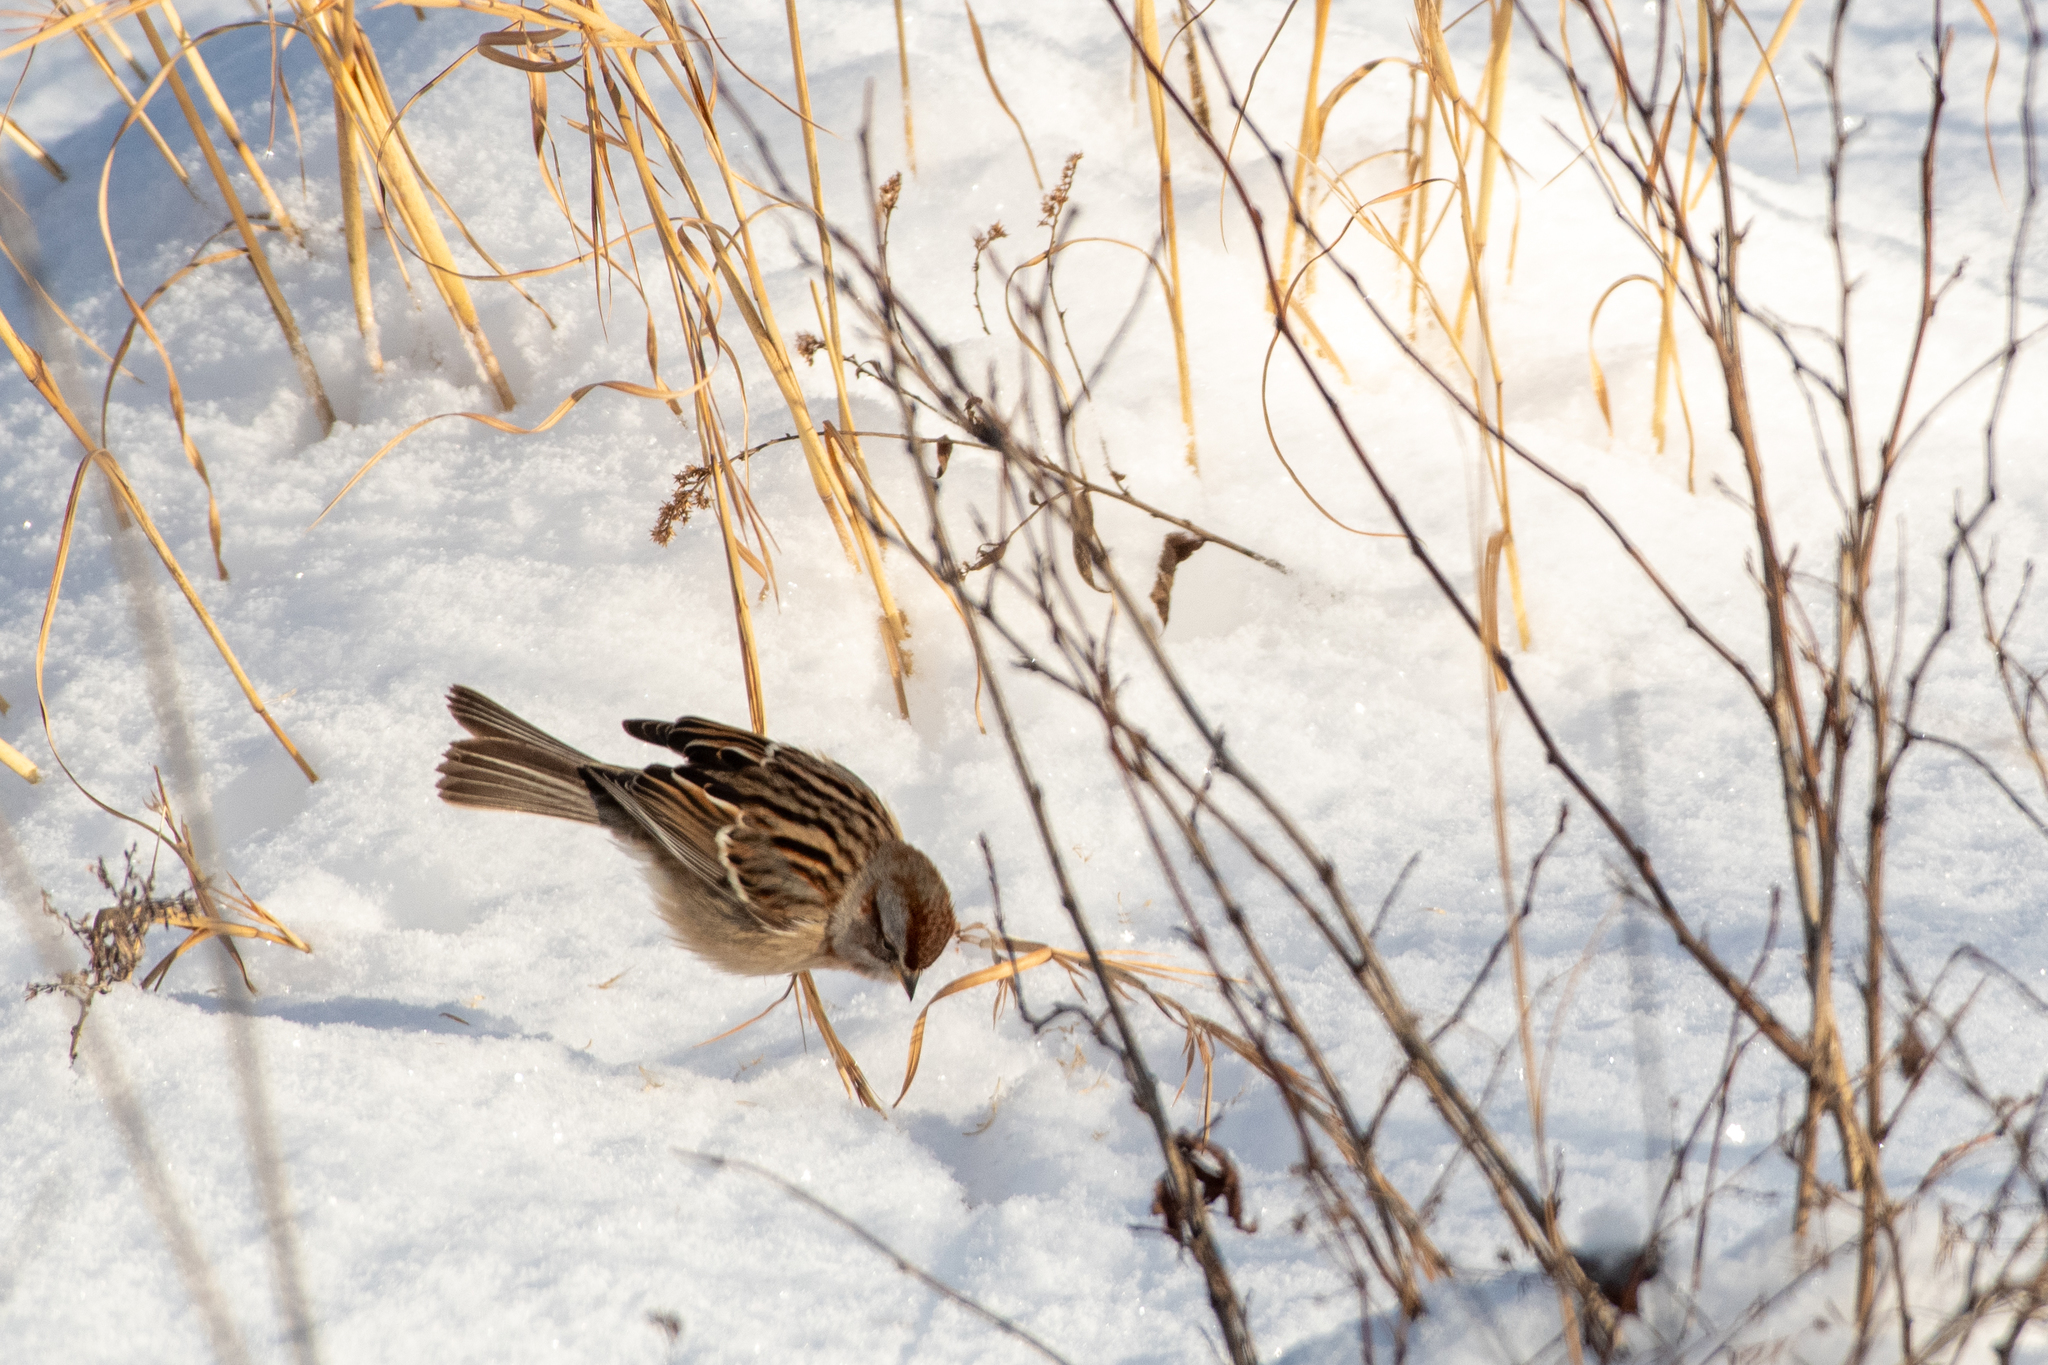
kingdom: Animalia
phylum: Chordata
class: Aves
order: Passeriformes
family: Passerellidae
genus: Spizelloides
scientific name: Spizelloides arborea
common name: American tree sparrow
